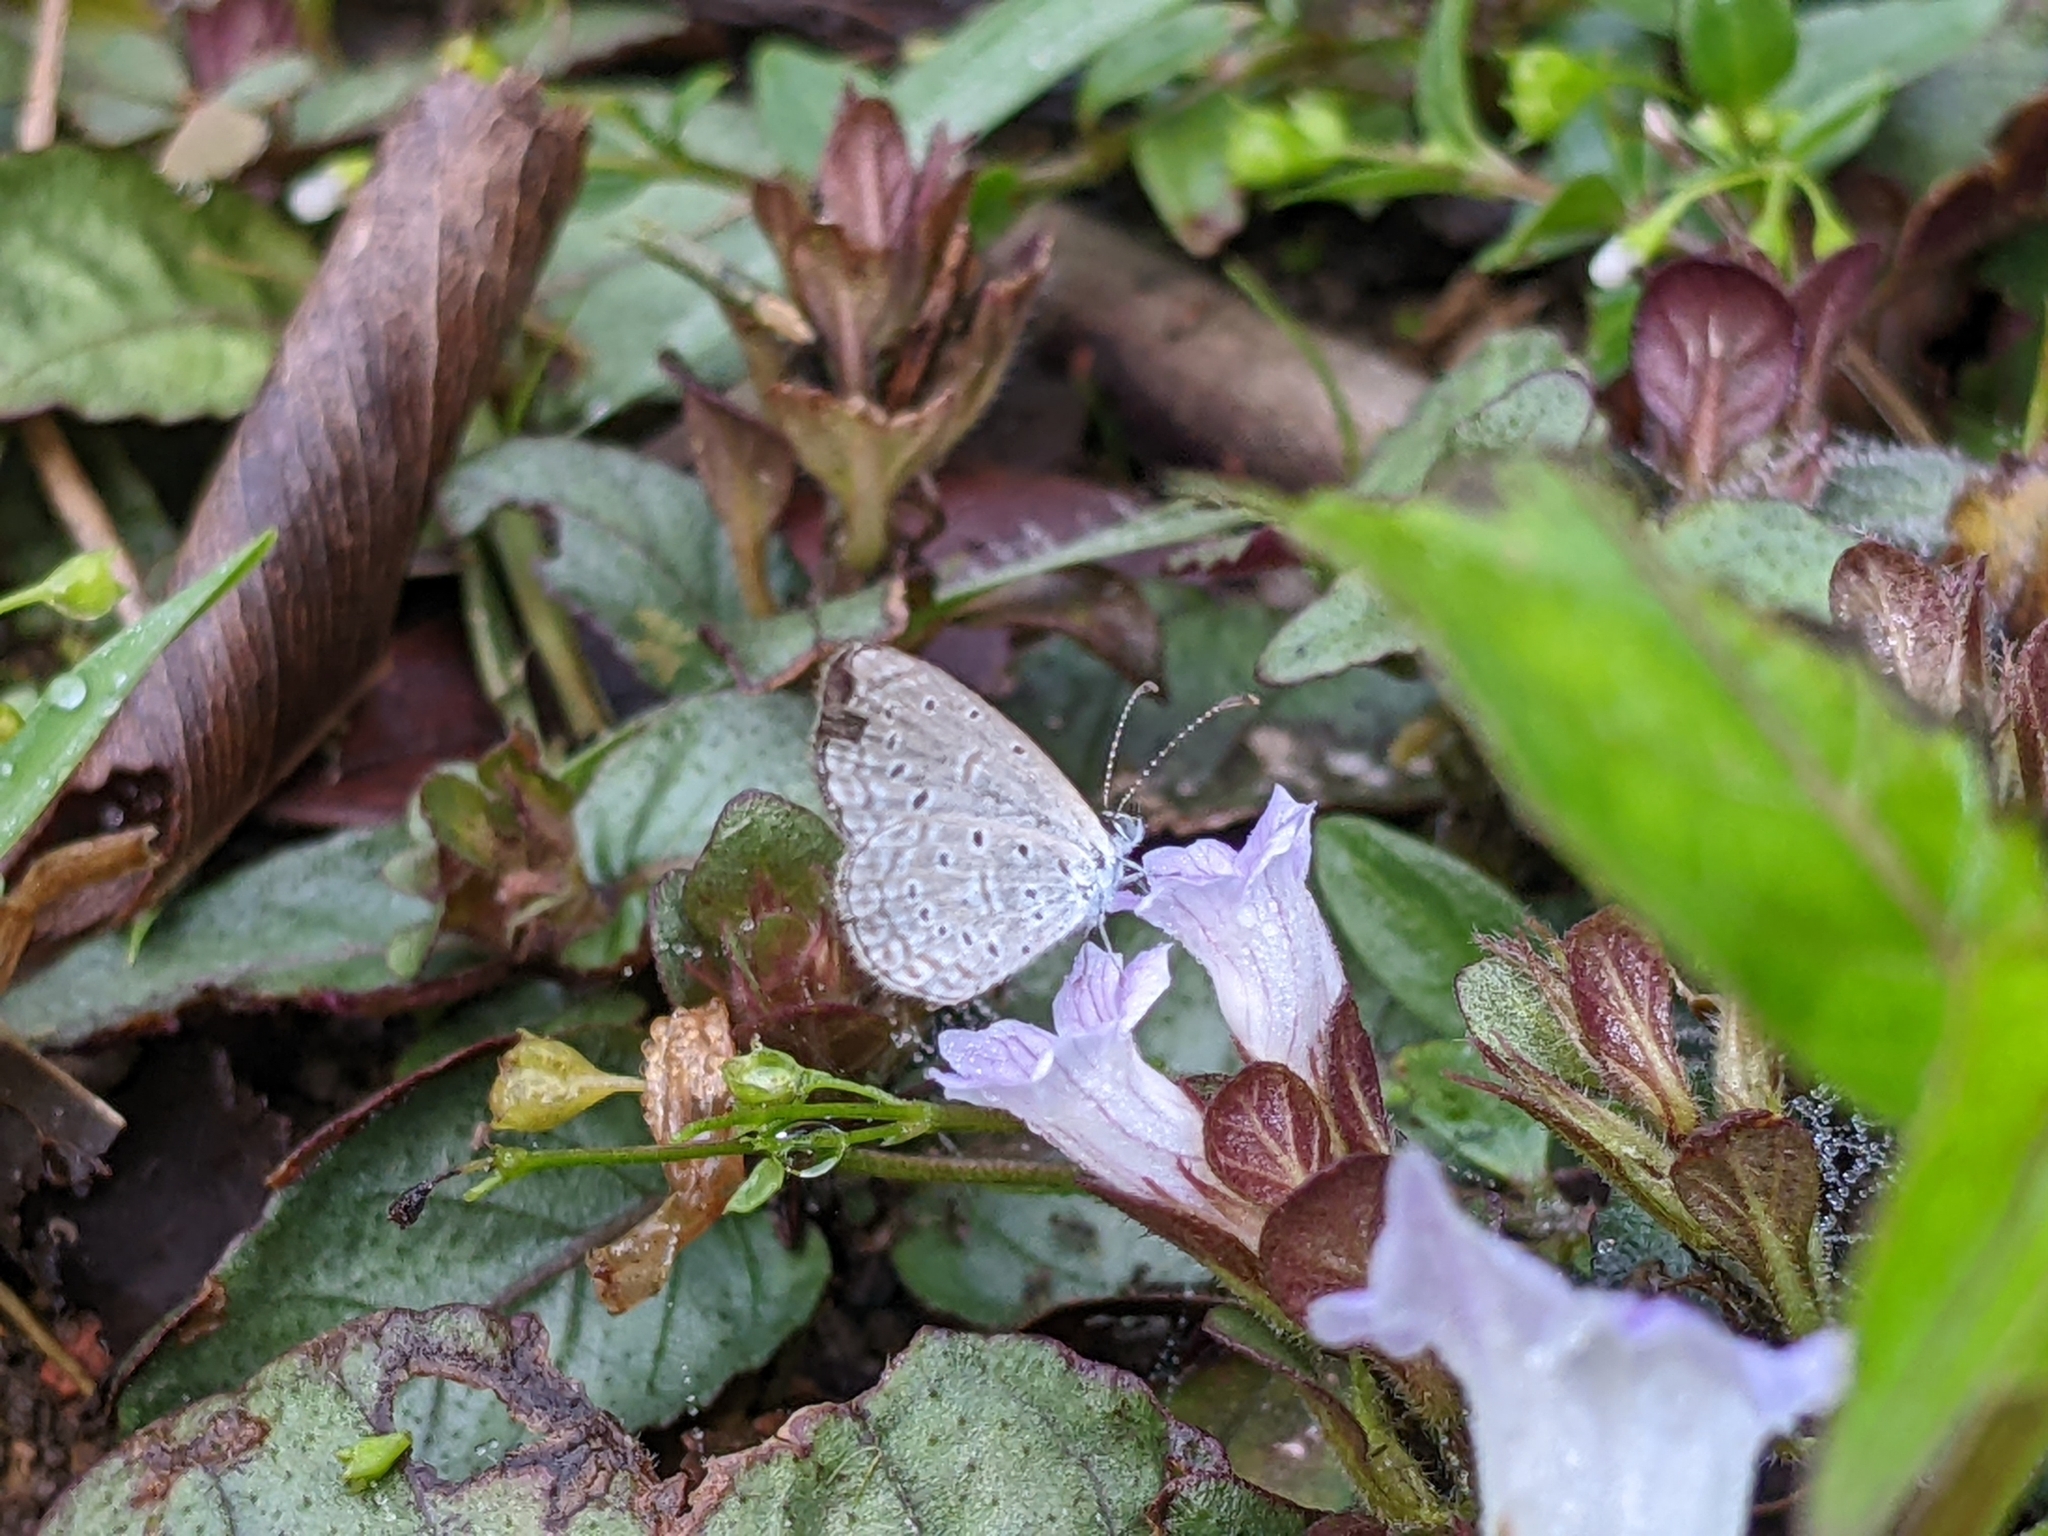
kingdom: Animalia
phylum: Arthropoda
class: Insecta
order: Lepidoptera
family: Lycaenidae
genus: Zizula
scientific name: Zizula hylax
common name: Gaika blue
